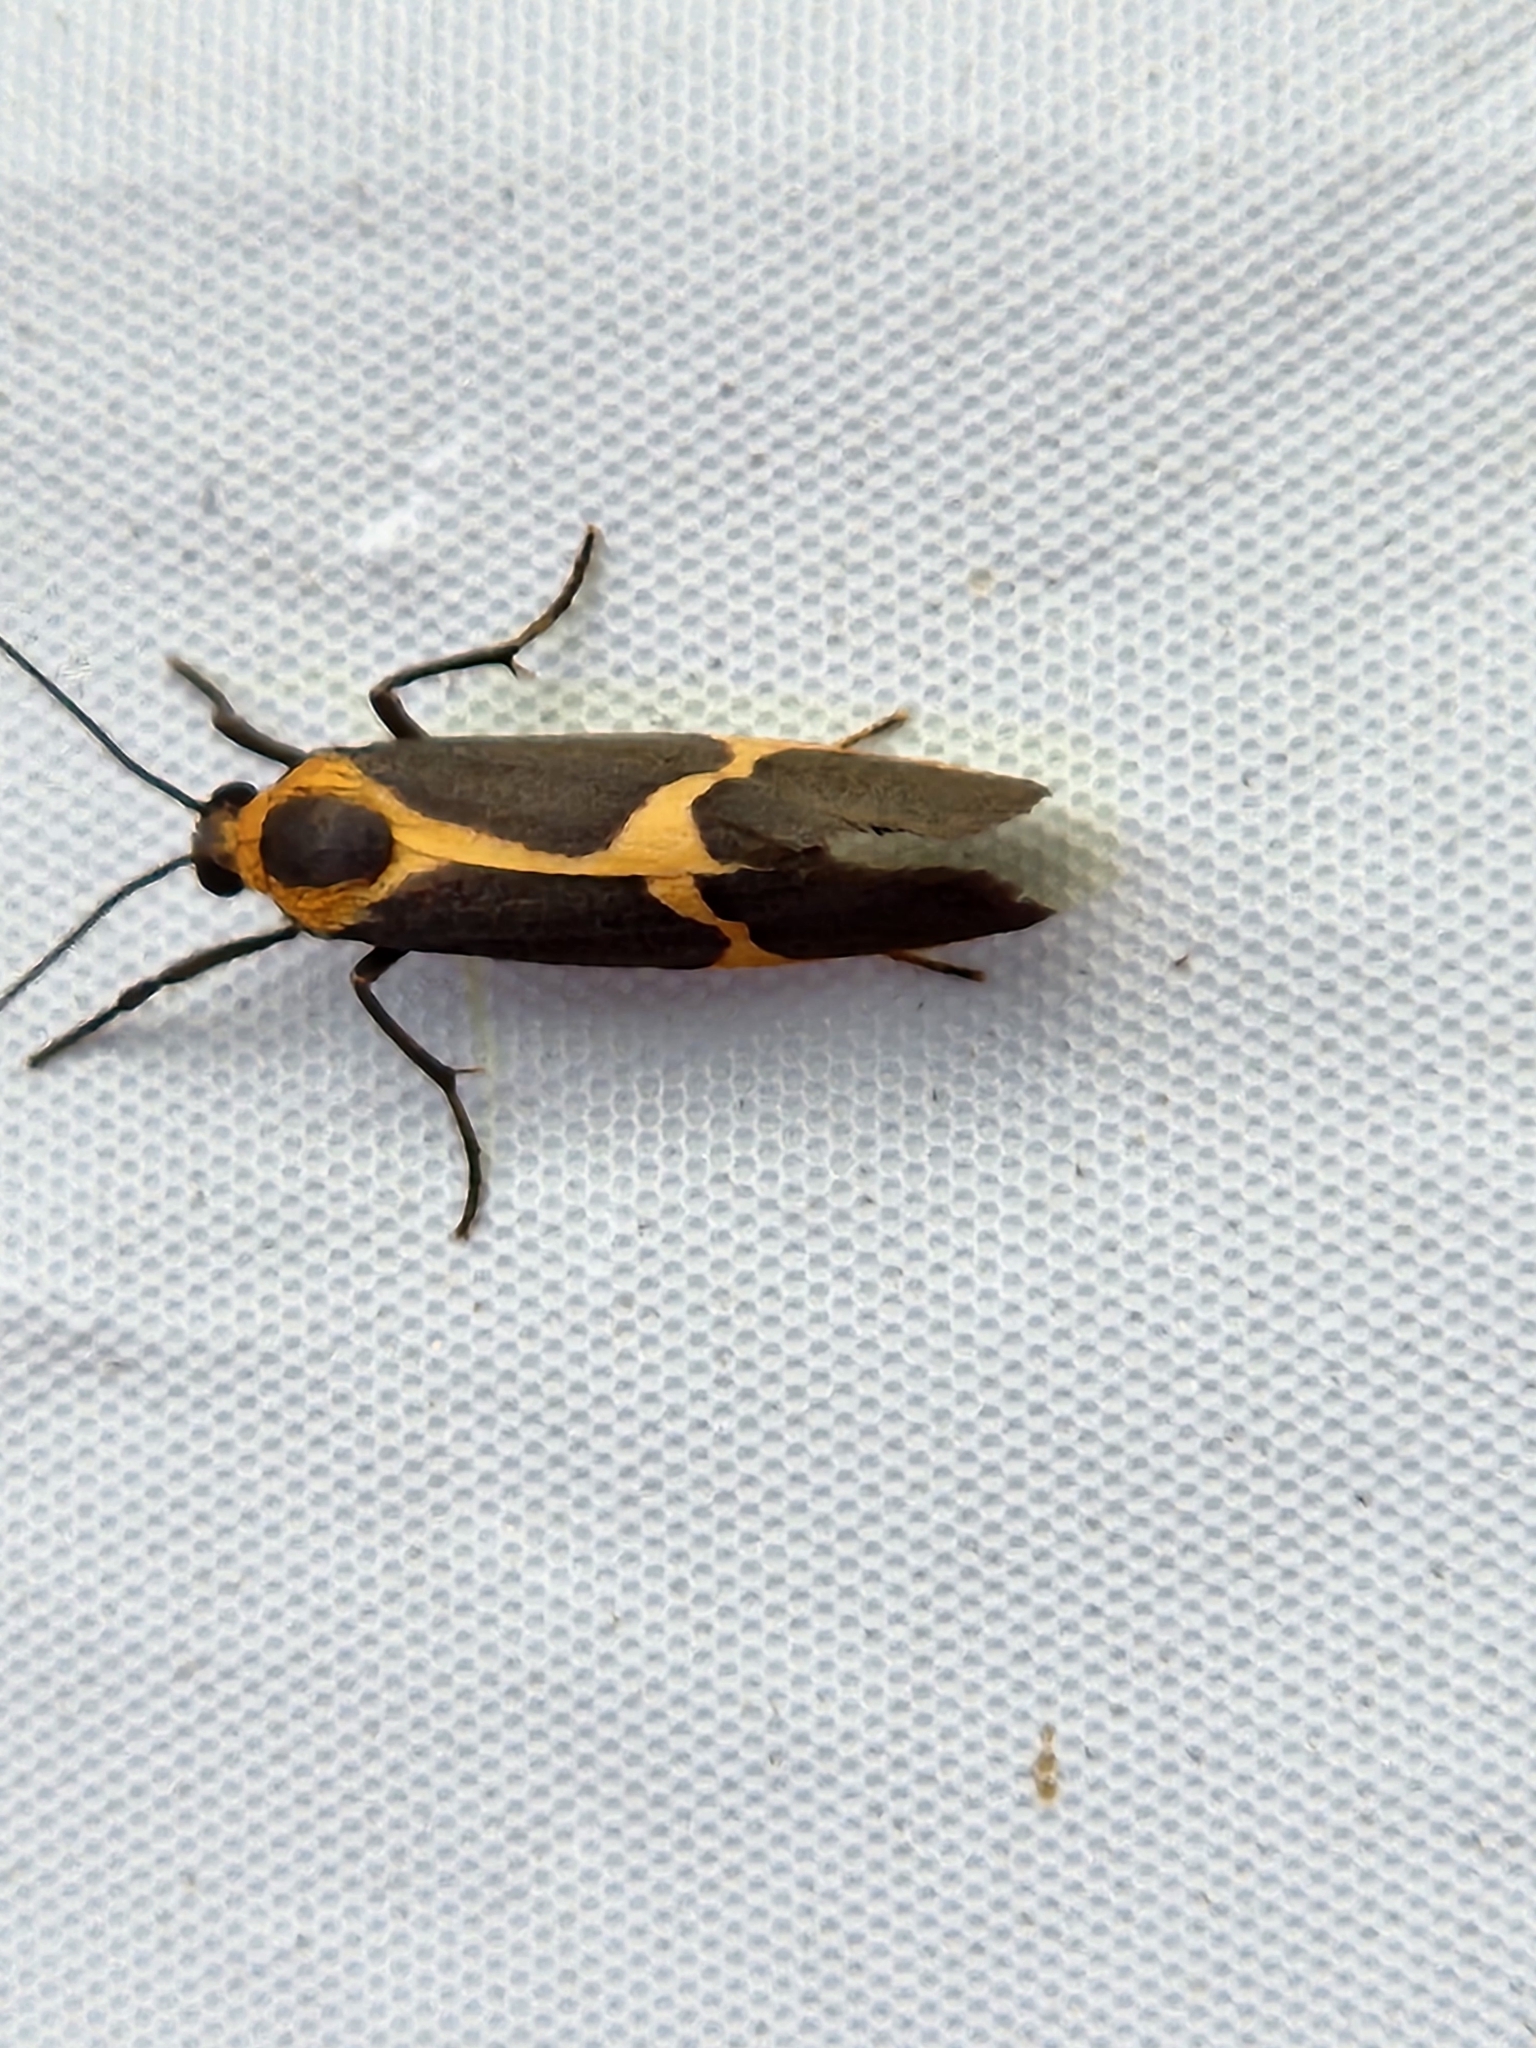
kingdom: Animalia
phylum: Arthropoda
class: Insecta
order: Lepidoptera
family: Erebidae
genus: Cisthene
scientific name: Cisthene barnesii
